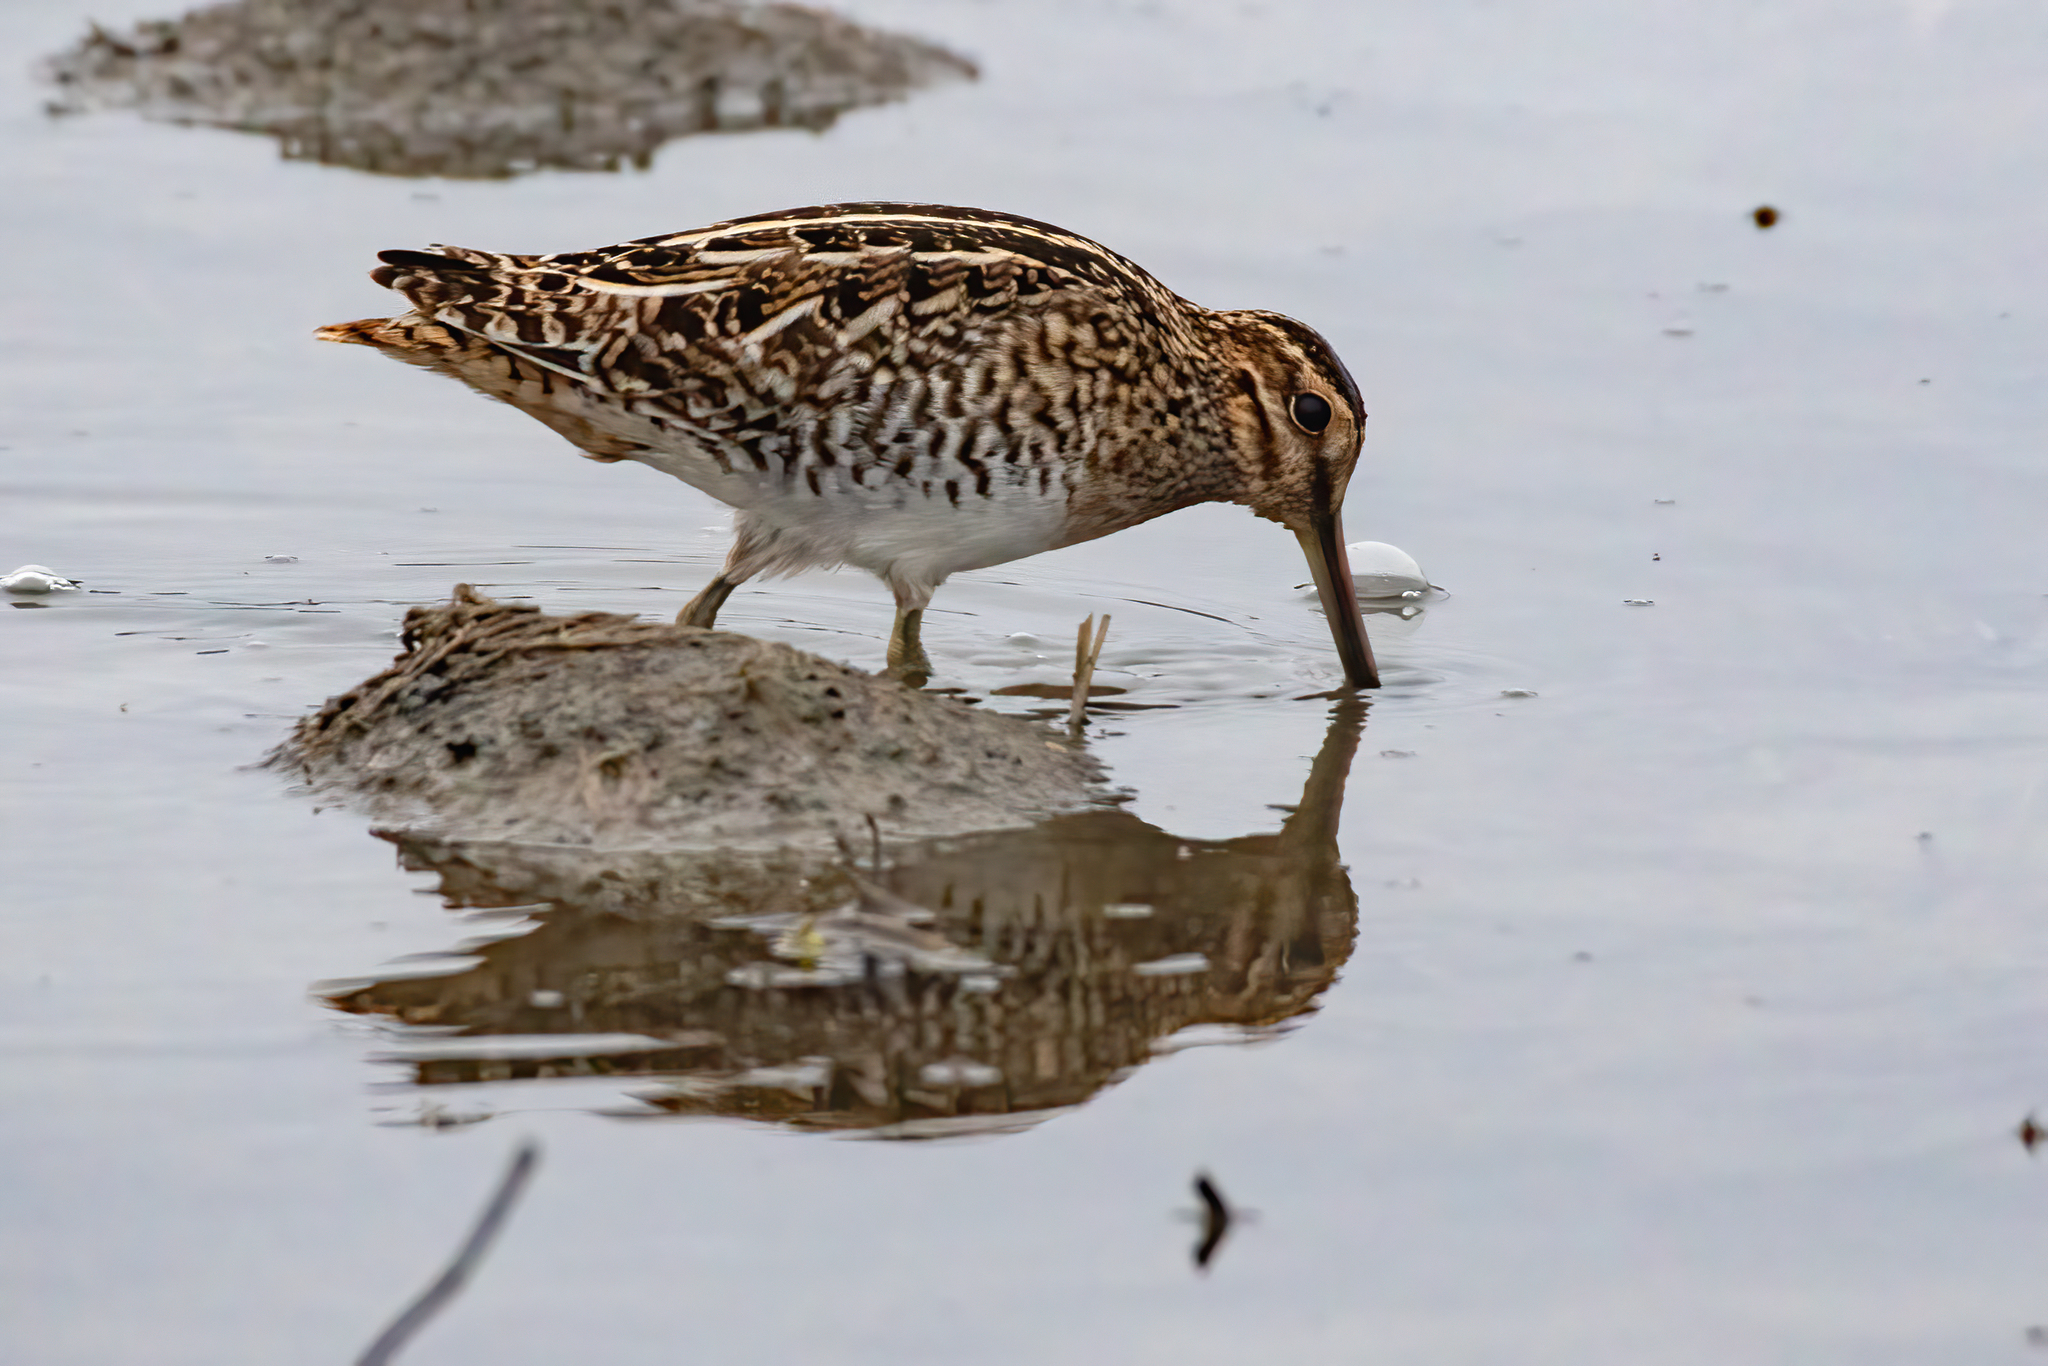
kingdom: Animalia
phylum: Chordata
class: Aves
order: Charadriiformes
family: Scolopacidae
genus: Gallinago
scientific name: Gallinago delicata
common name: Wilson's snipe
